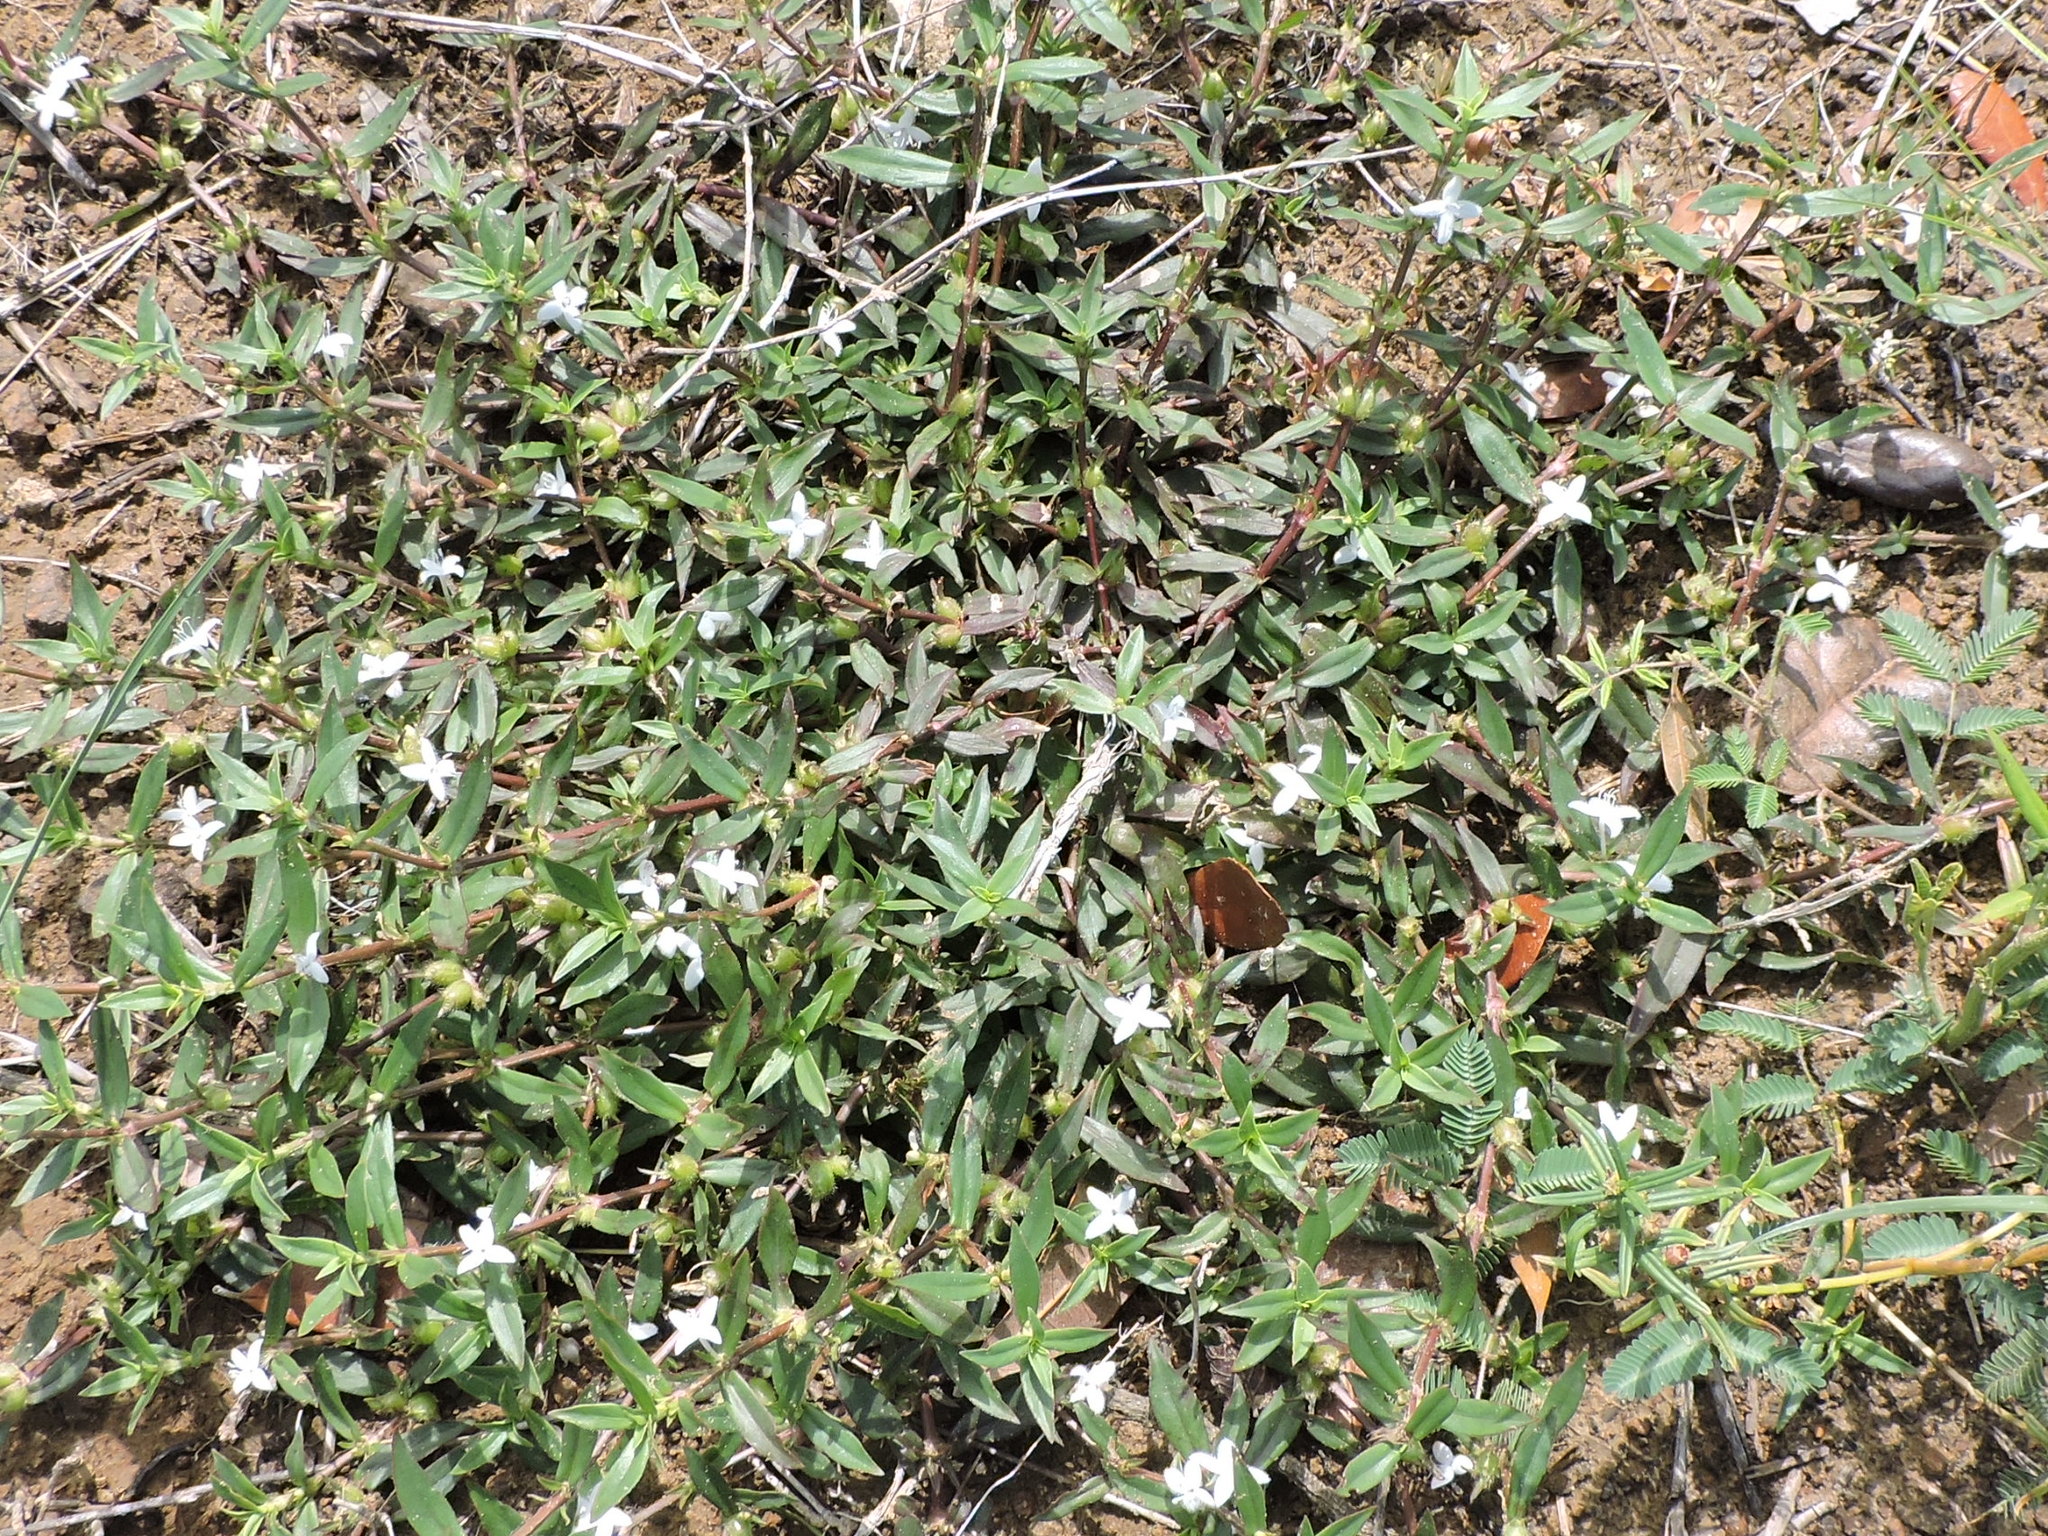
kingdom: Plantae
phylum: Tracheophyta
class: Magnoliopsida
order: Gentianales
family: Rubiaceae
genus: Diodia
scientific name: Diodia virginiana
